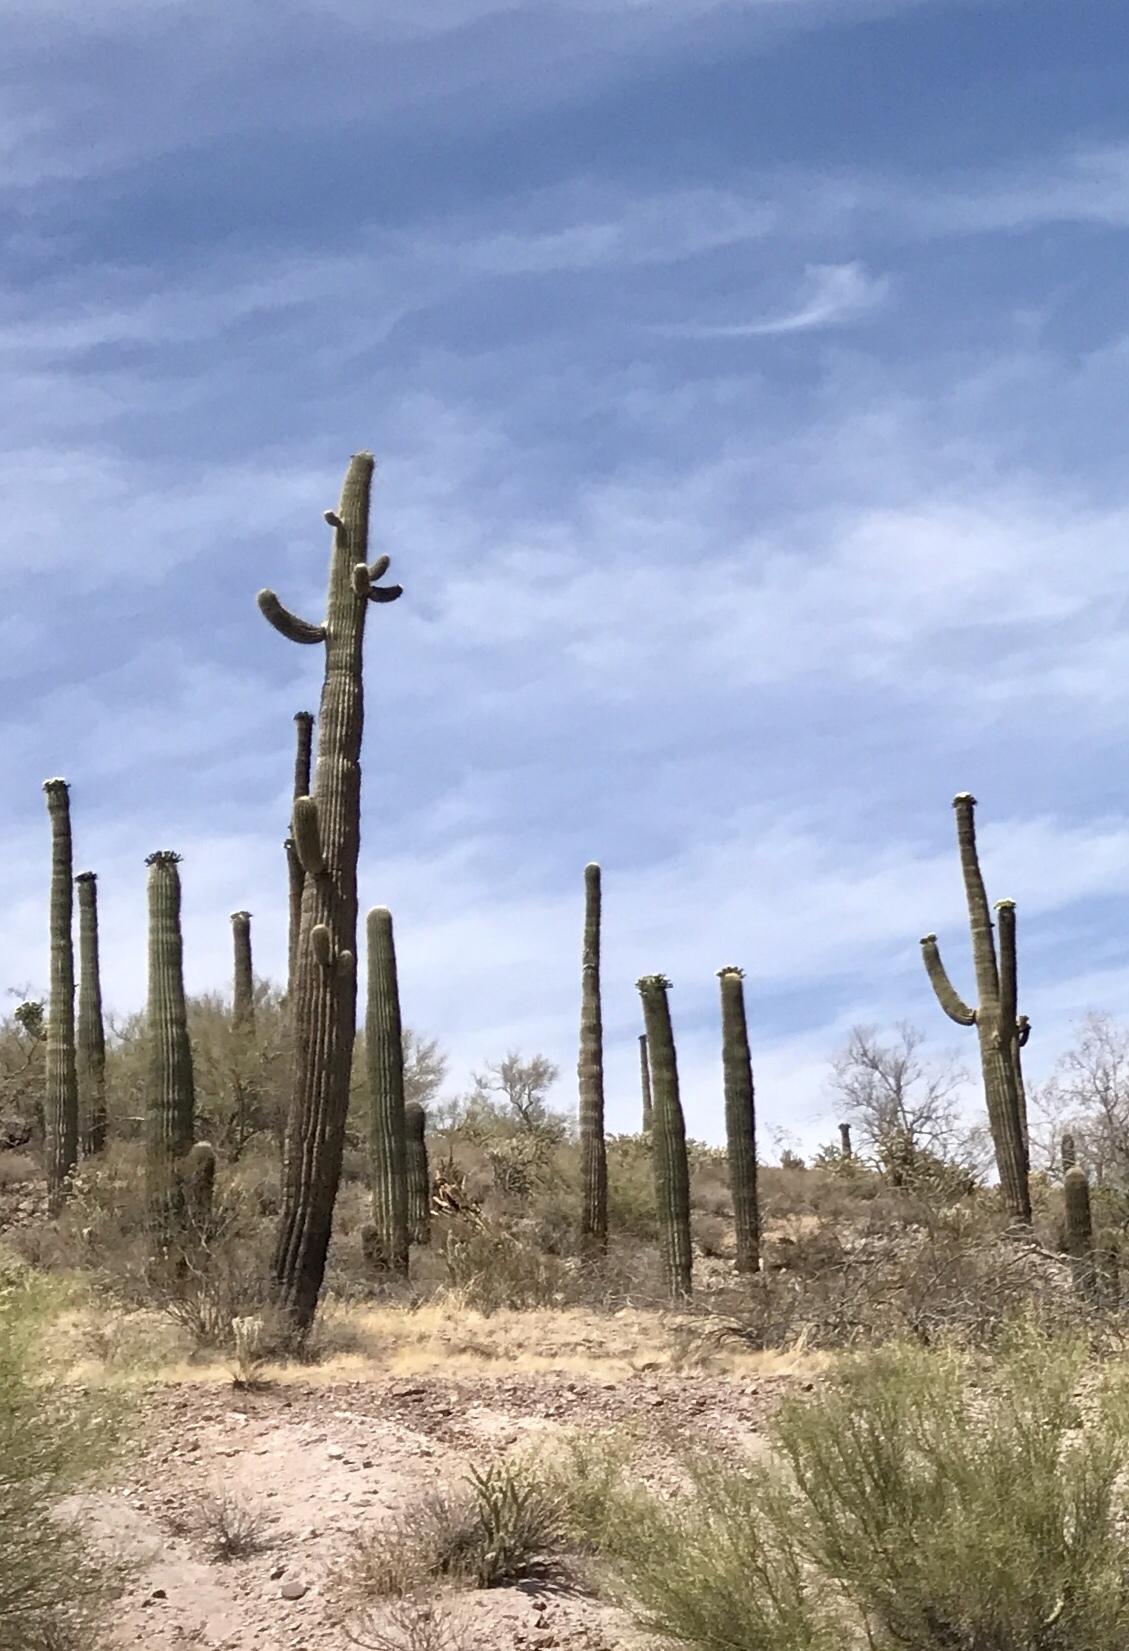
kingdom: Plantae
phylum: Tracheophyta
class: Magnoliopsida
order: Caryophyllales
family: Cactaceae
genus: Carnegiea
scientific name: Carnegiea gigantea
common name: Saguaro
